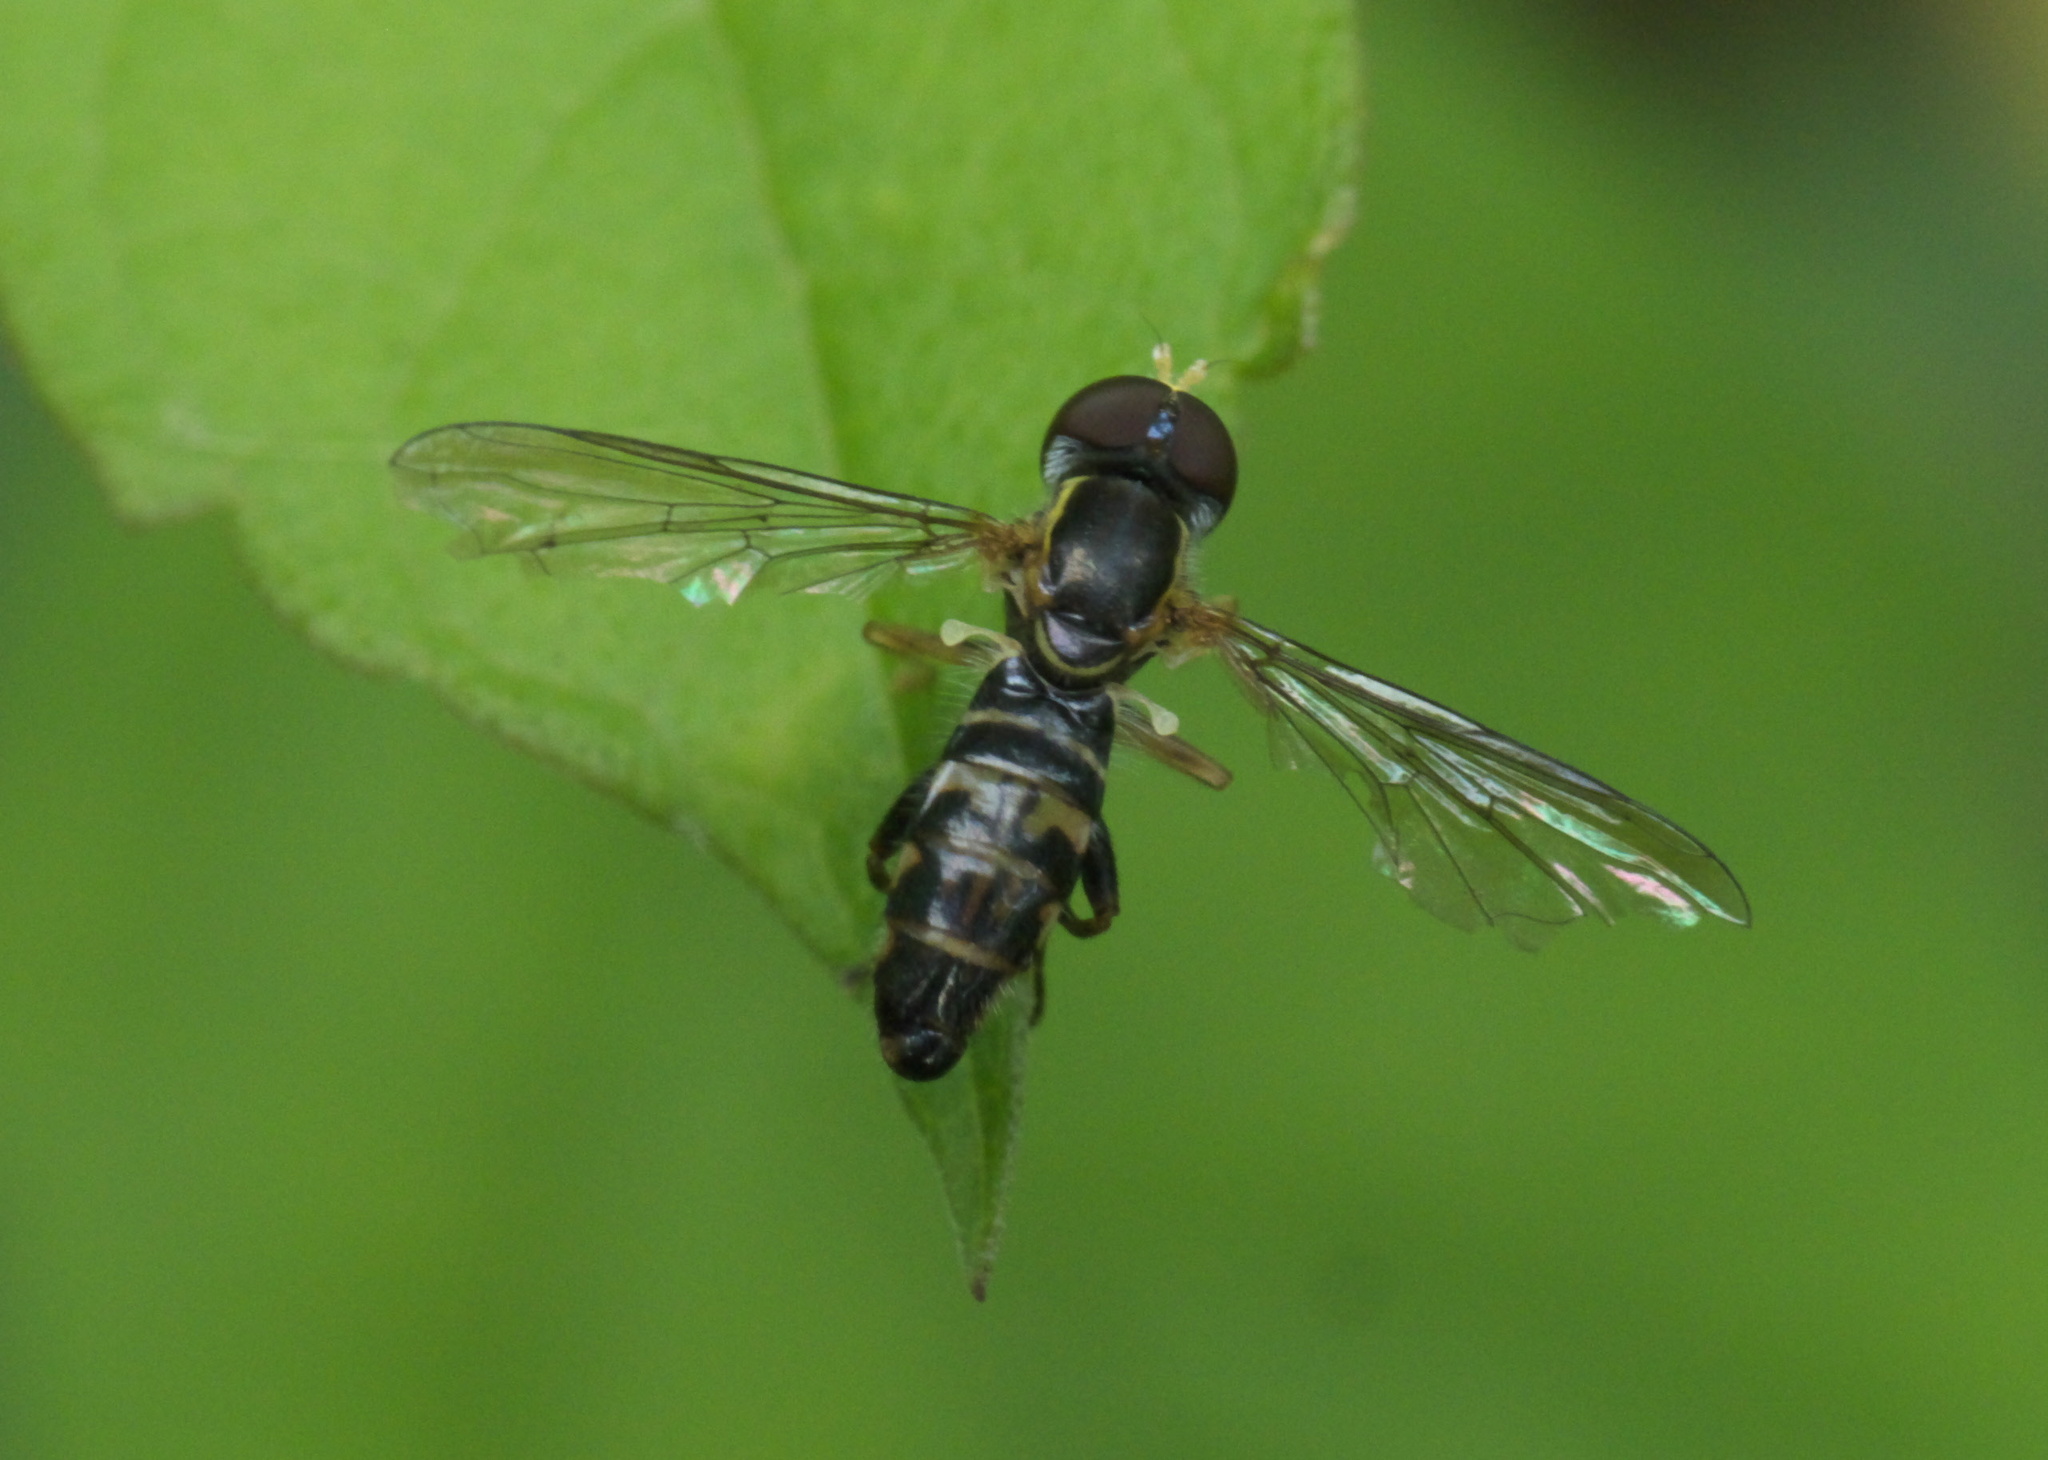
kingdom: Animalia
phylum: Arthropoda
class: Insecta
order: Diptera
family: Syrphidae
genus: Toxomerus
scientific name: Toxomerus geminatus
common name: Eastern calligrapher
